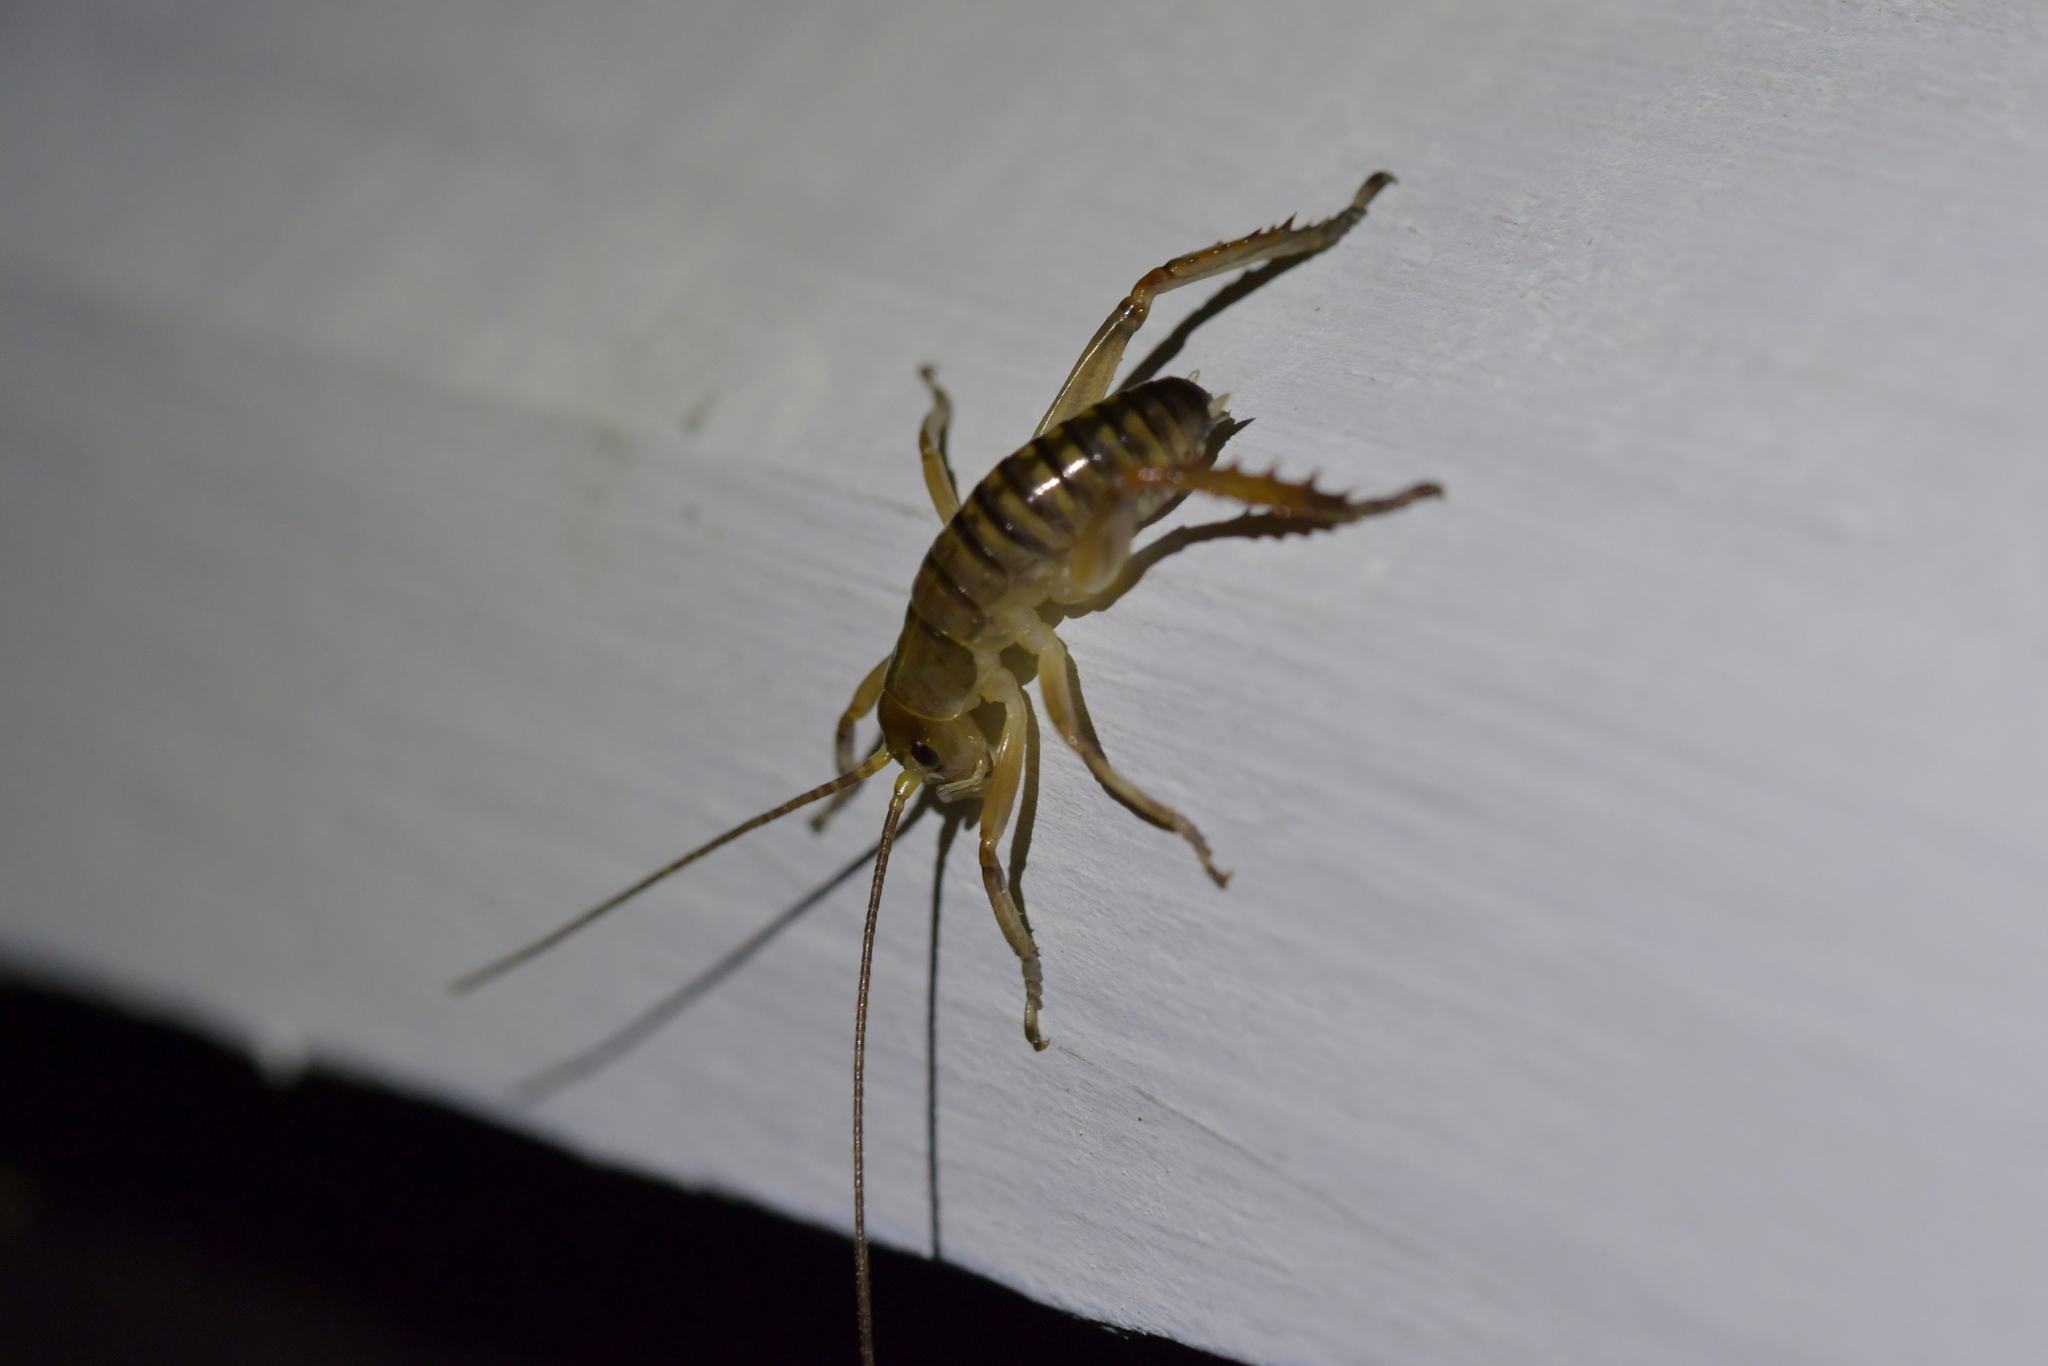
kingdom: Animalia
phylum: Arthropoda
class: Insecta
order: Orthoptera
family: Anostostomatidae
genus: Hemideina
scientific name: Hemideina crassidens
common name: Wellington tree weta
